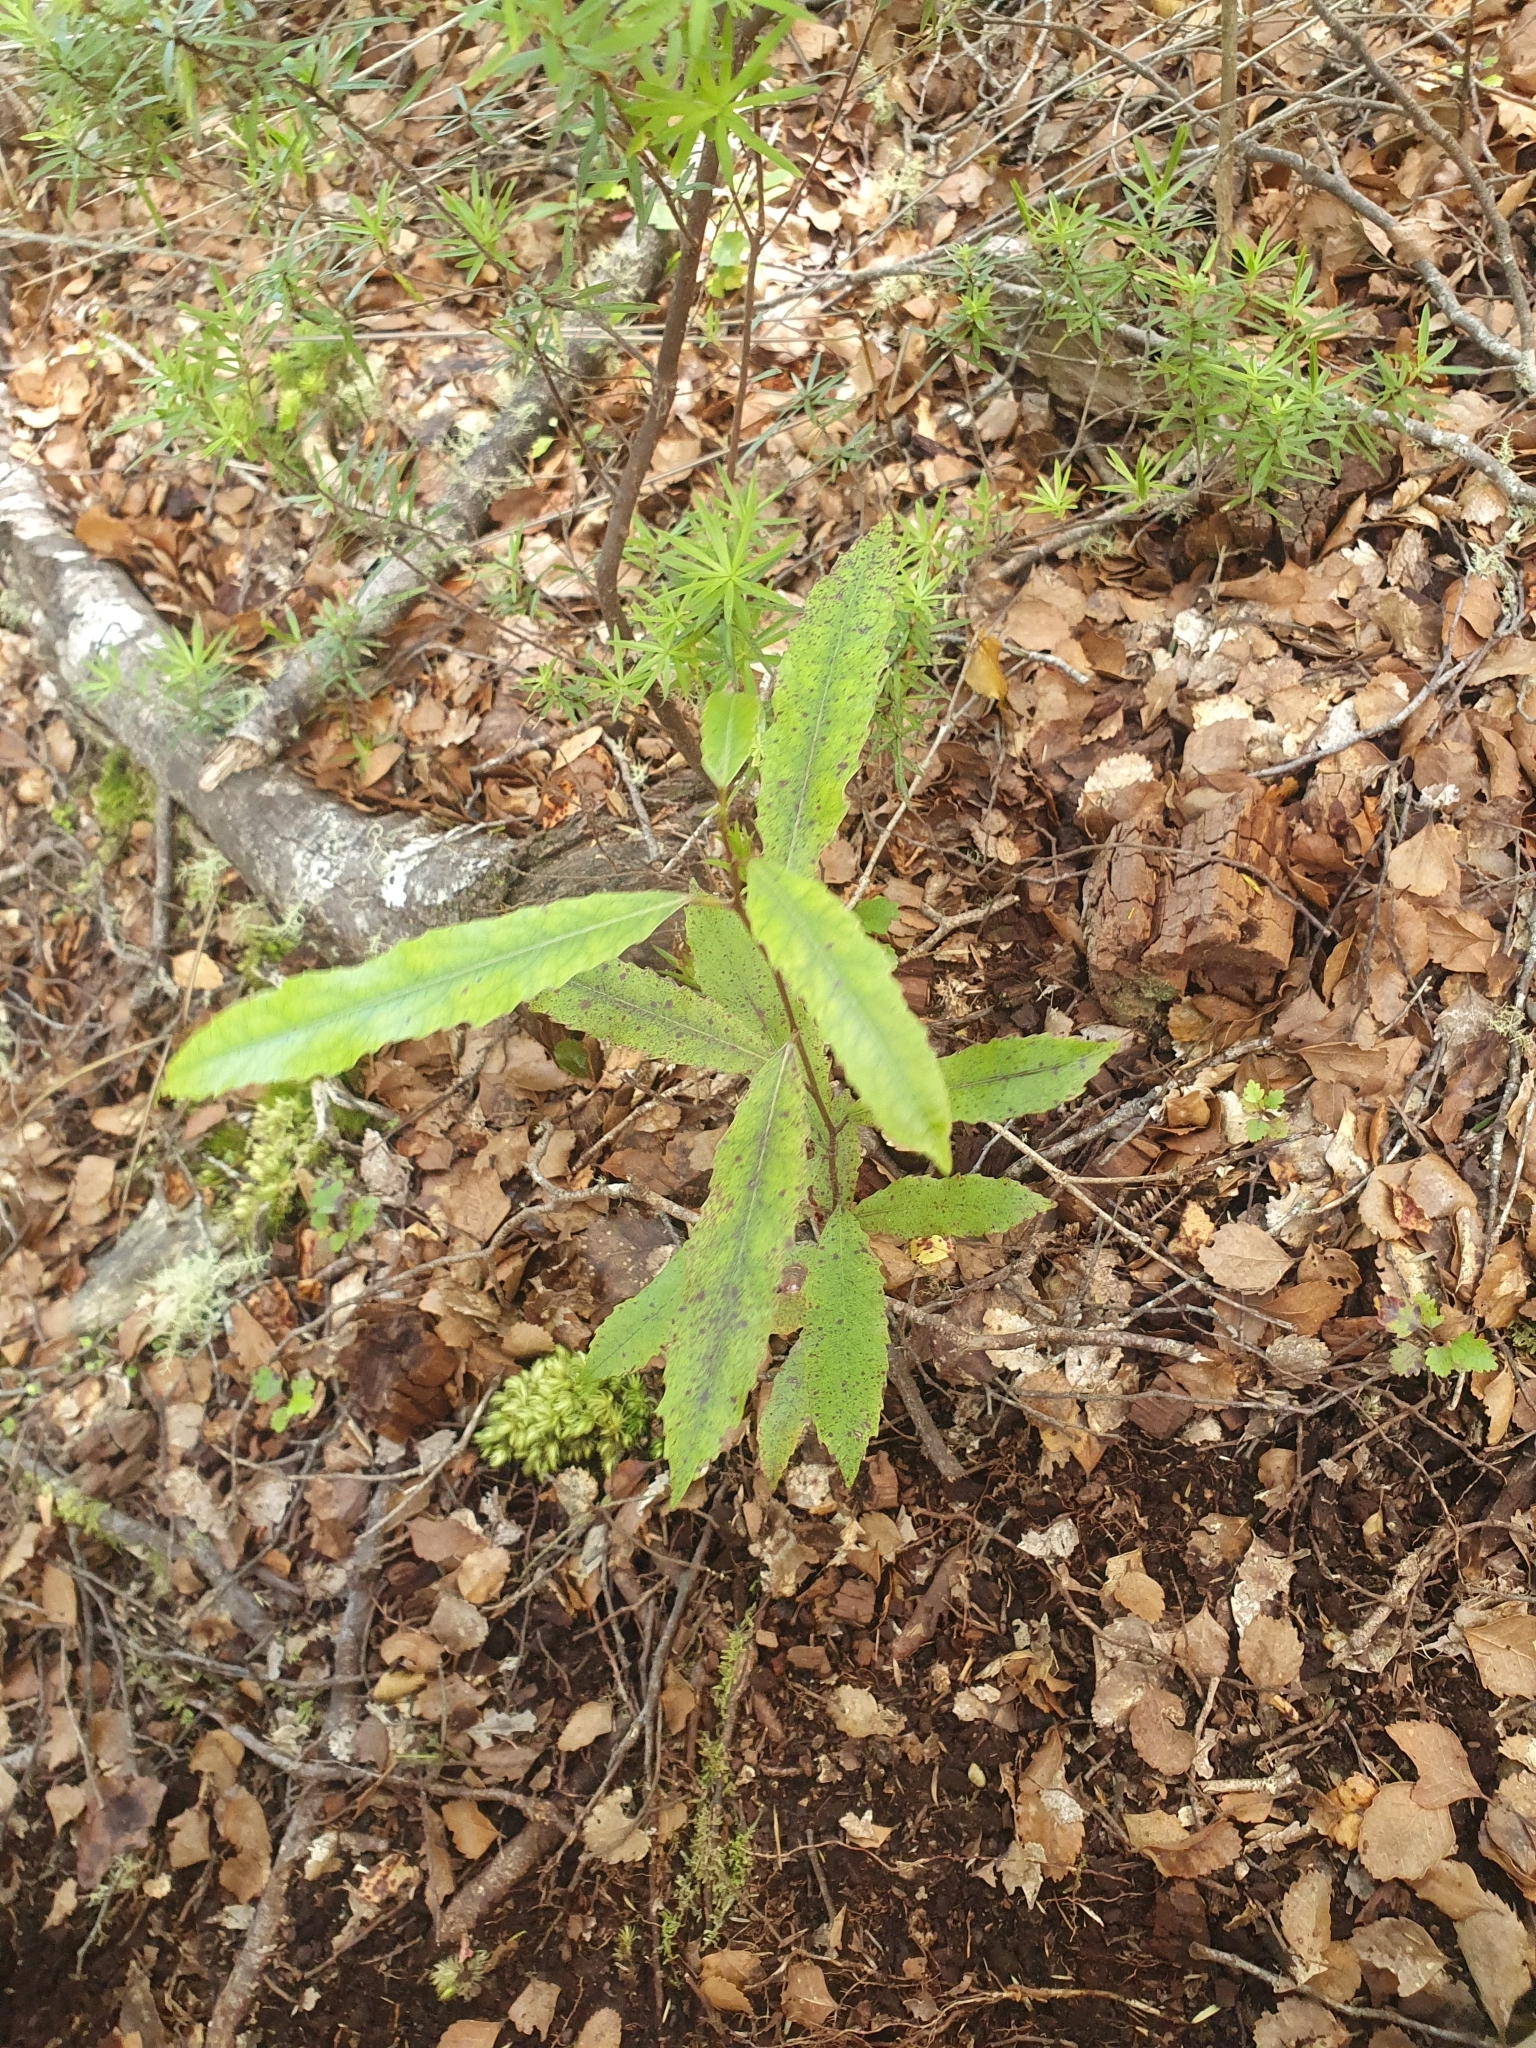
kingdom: Plantae
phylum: Tracheophyta
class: Magnoliopsida
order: Oxalidales
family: Elaeocarpaceae
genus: Elaeocarpus
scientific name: Elaeocarpus dentatus
